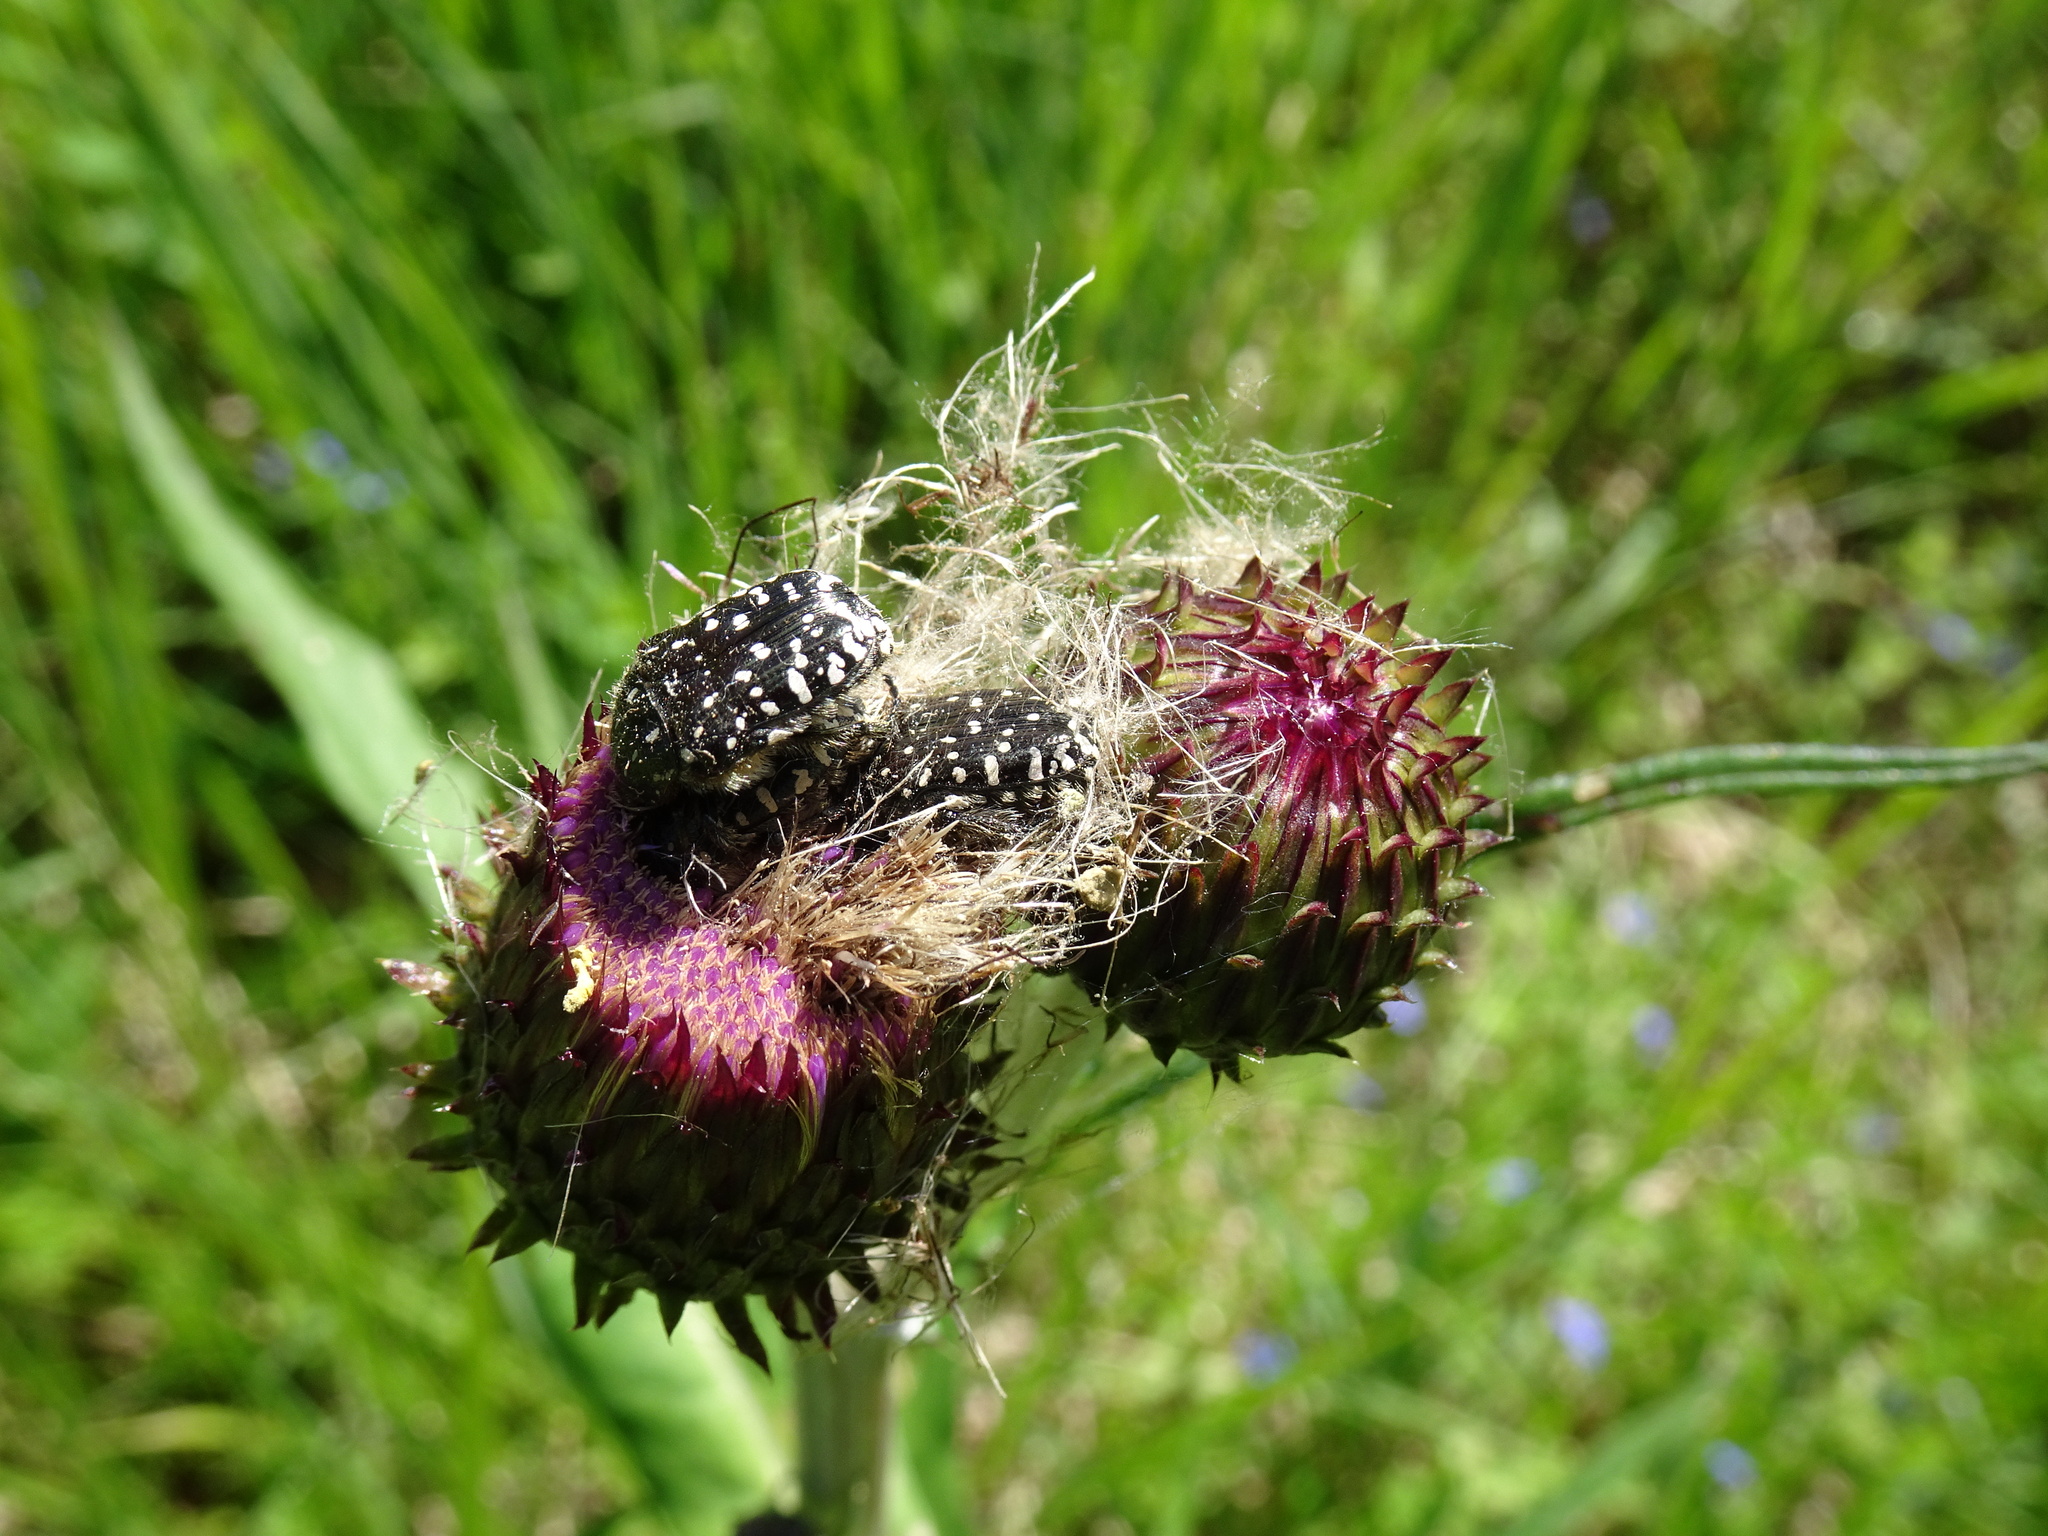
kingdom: Animalia
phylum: Arthropoda
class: Insecta
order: Coleoptera
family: Scarabaeidae
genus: Oxythyrea
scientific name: Oxythyrea funesta
